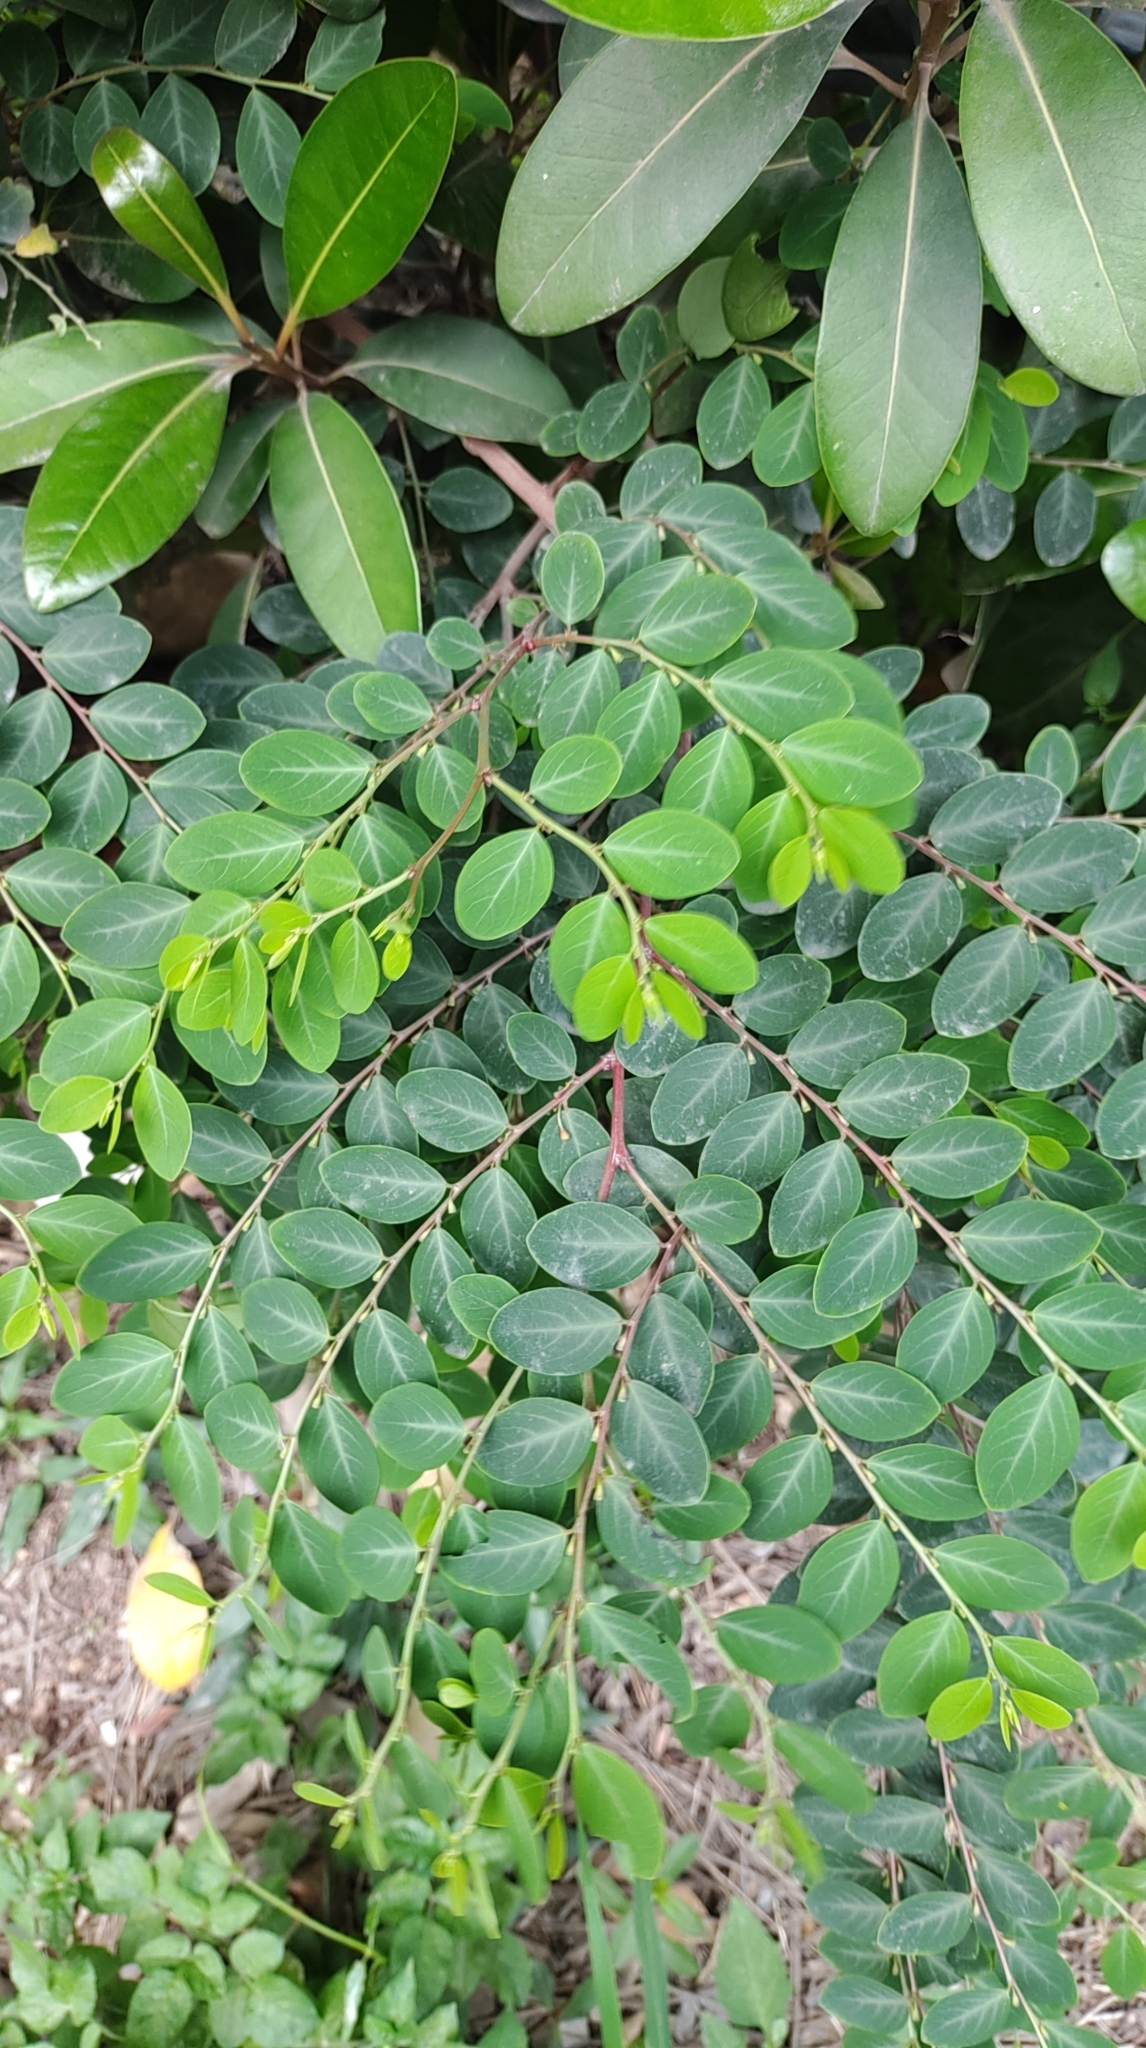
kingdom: Plantae
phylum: Tracheophyta
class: Magnoliopsida
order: Malpighiales
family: Phyllanthaceae
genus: Breynia
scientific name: Breynia vitis-idaea
